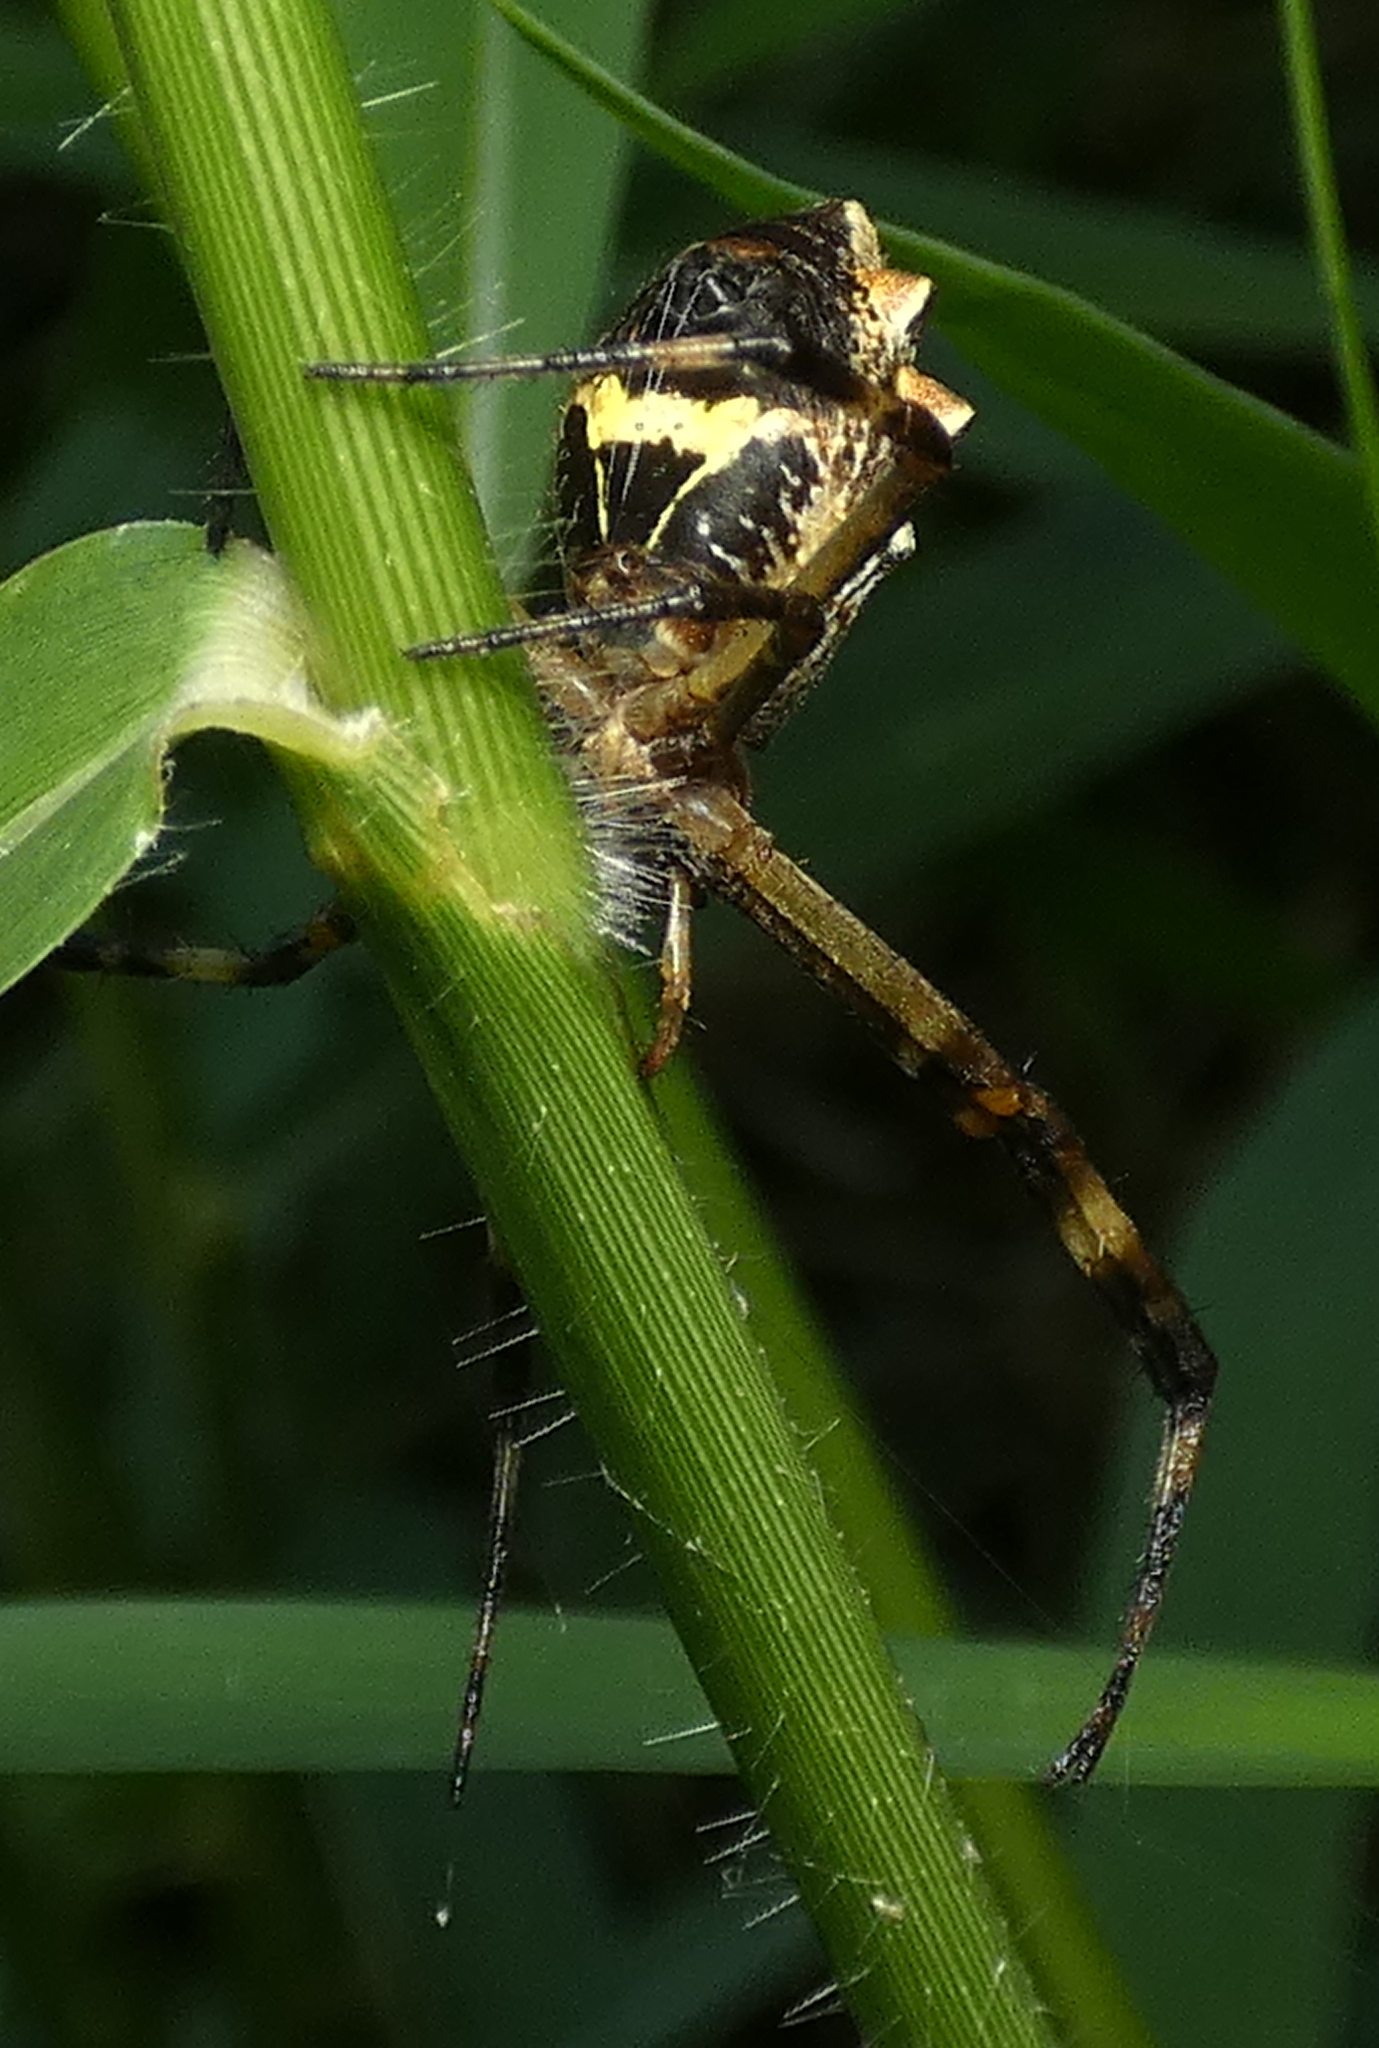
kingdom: Animalia
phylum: Arthropoda
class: Arachnida
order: Araneae
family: Araneidae
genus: Argiope
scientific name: Argiope argentata
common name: Orb weavers
